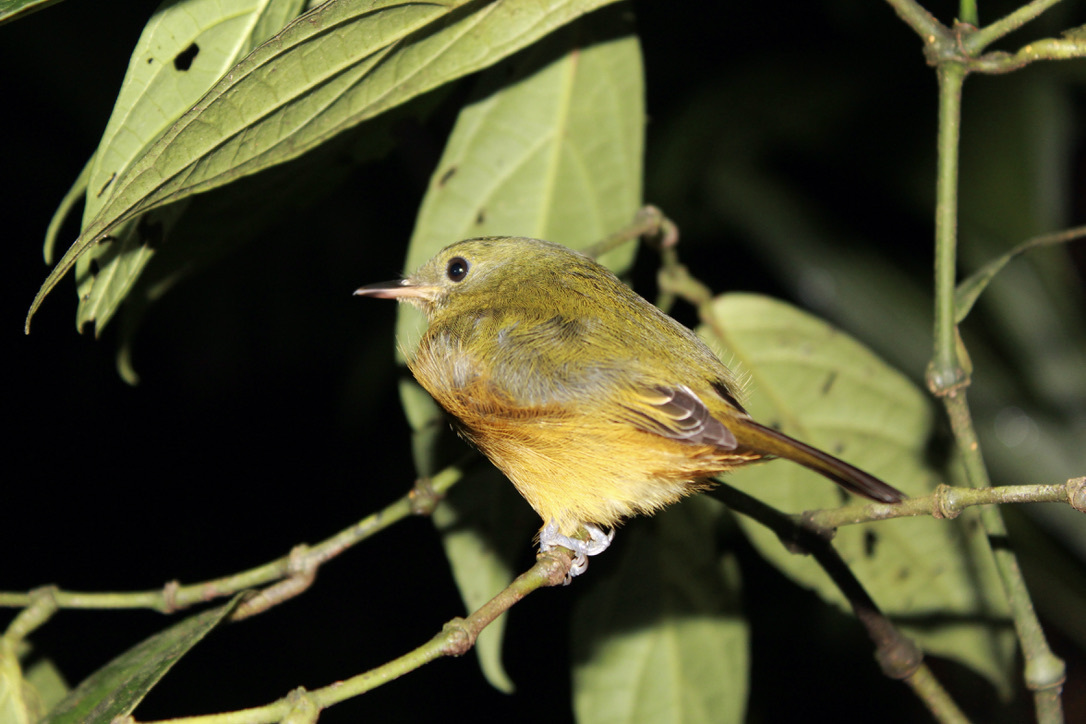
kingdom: Animalia
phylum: Chordata
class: Aves
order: Passeriformes
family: Tyrannidae
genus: Mionectes
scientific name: Mionectes oleagineus
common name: Ochre-bellied flycatcher
